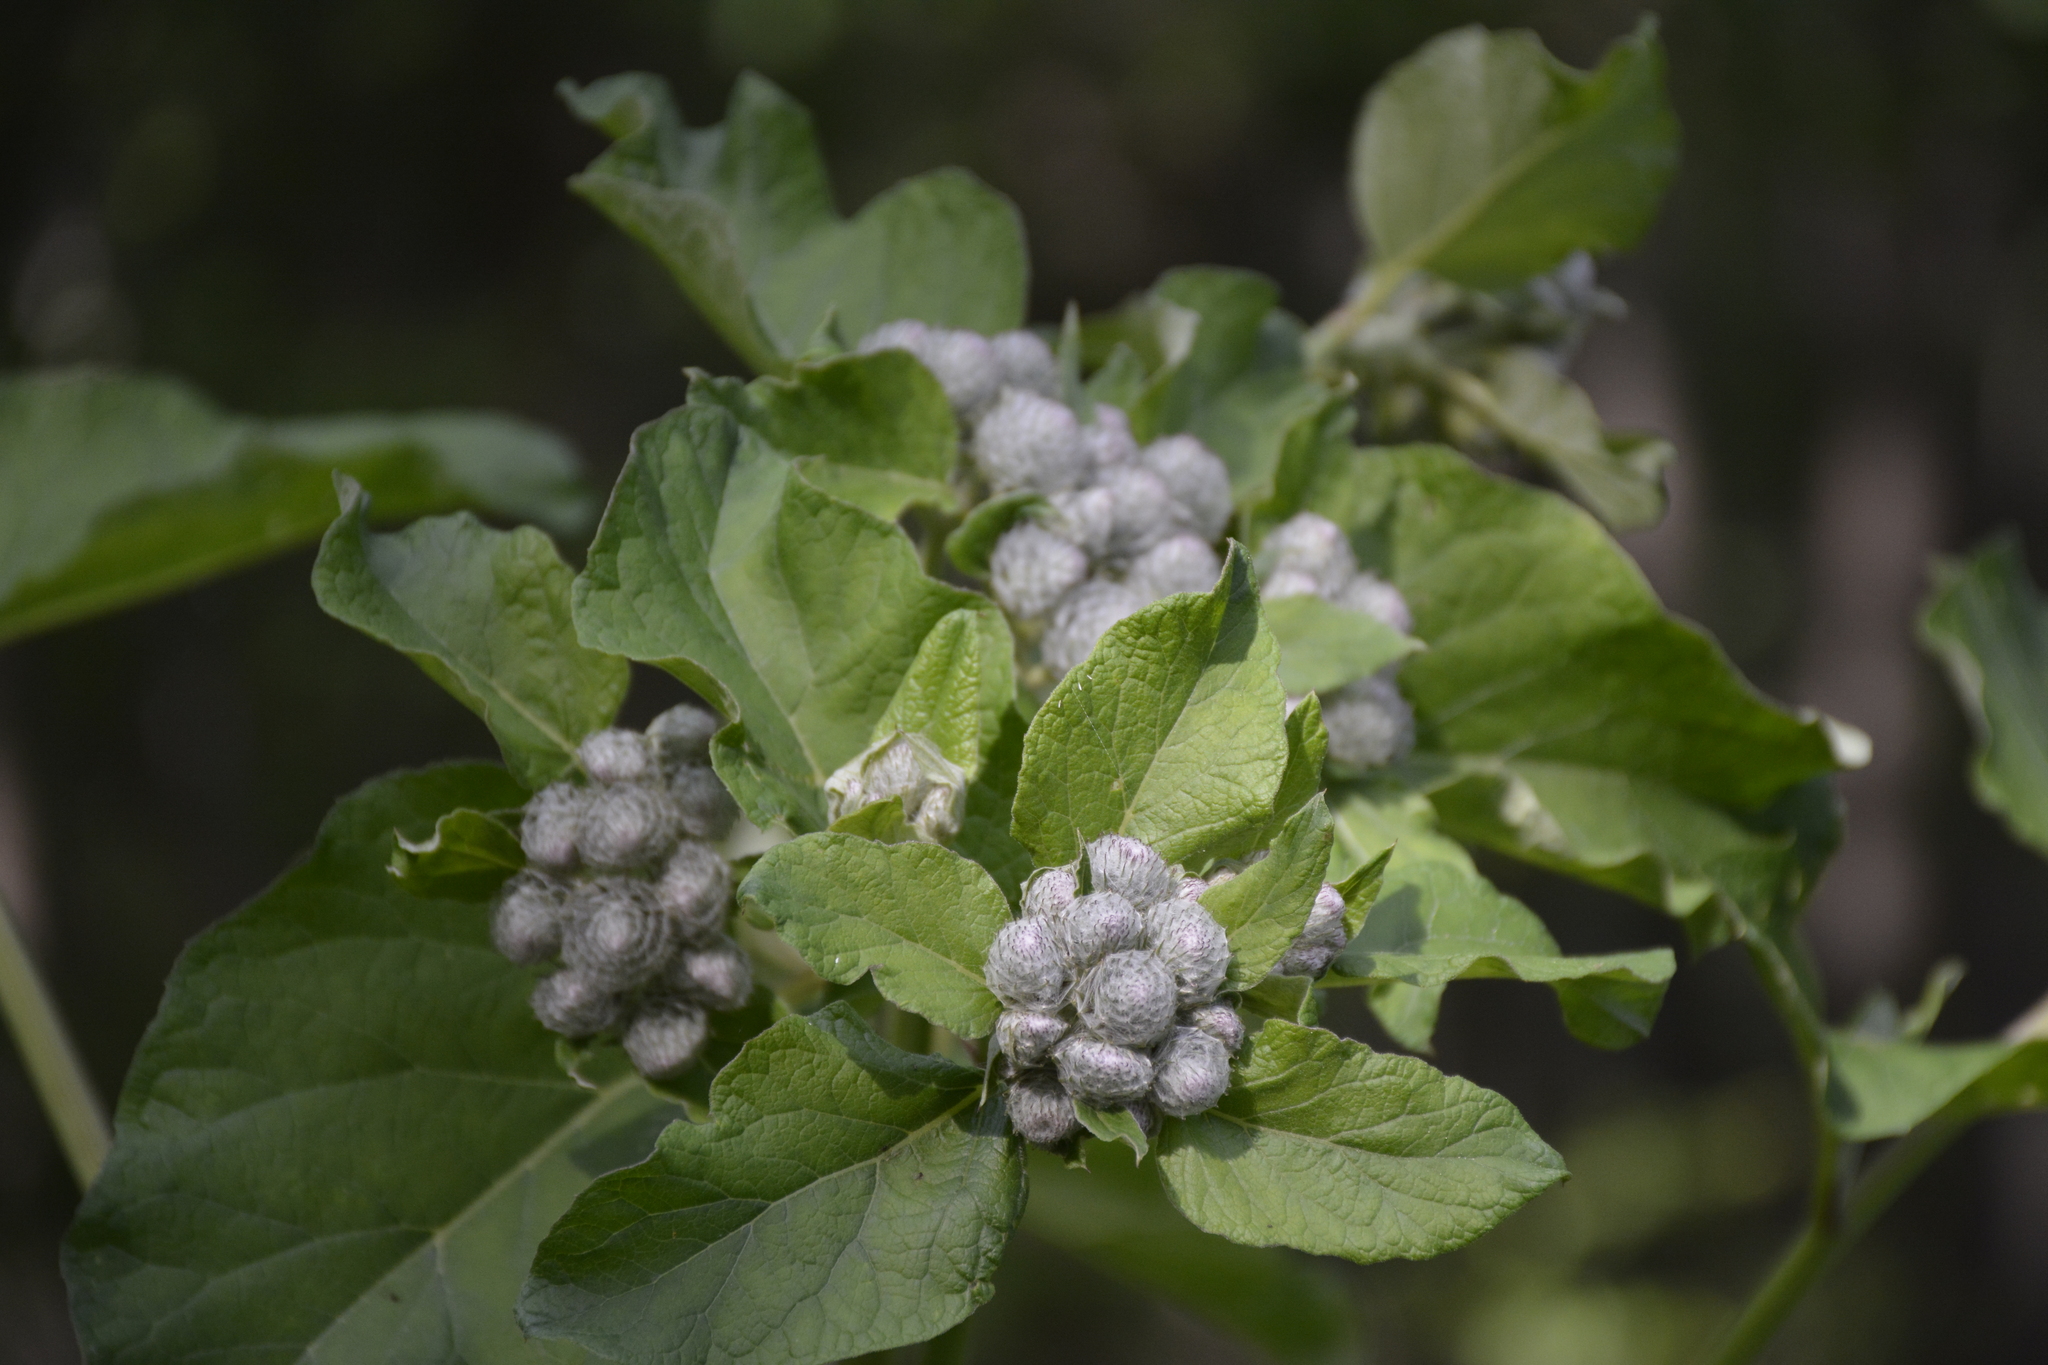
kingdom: Plantae
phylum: Tracheophyta
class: Magnoliopsida
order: Asterales
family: Asteraceae
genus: Arctium
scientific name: Arctium tomentosum
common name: Woolly burdock
